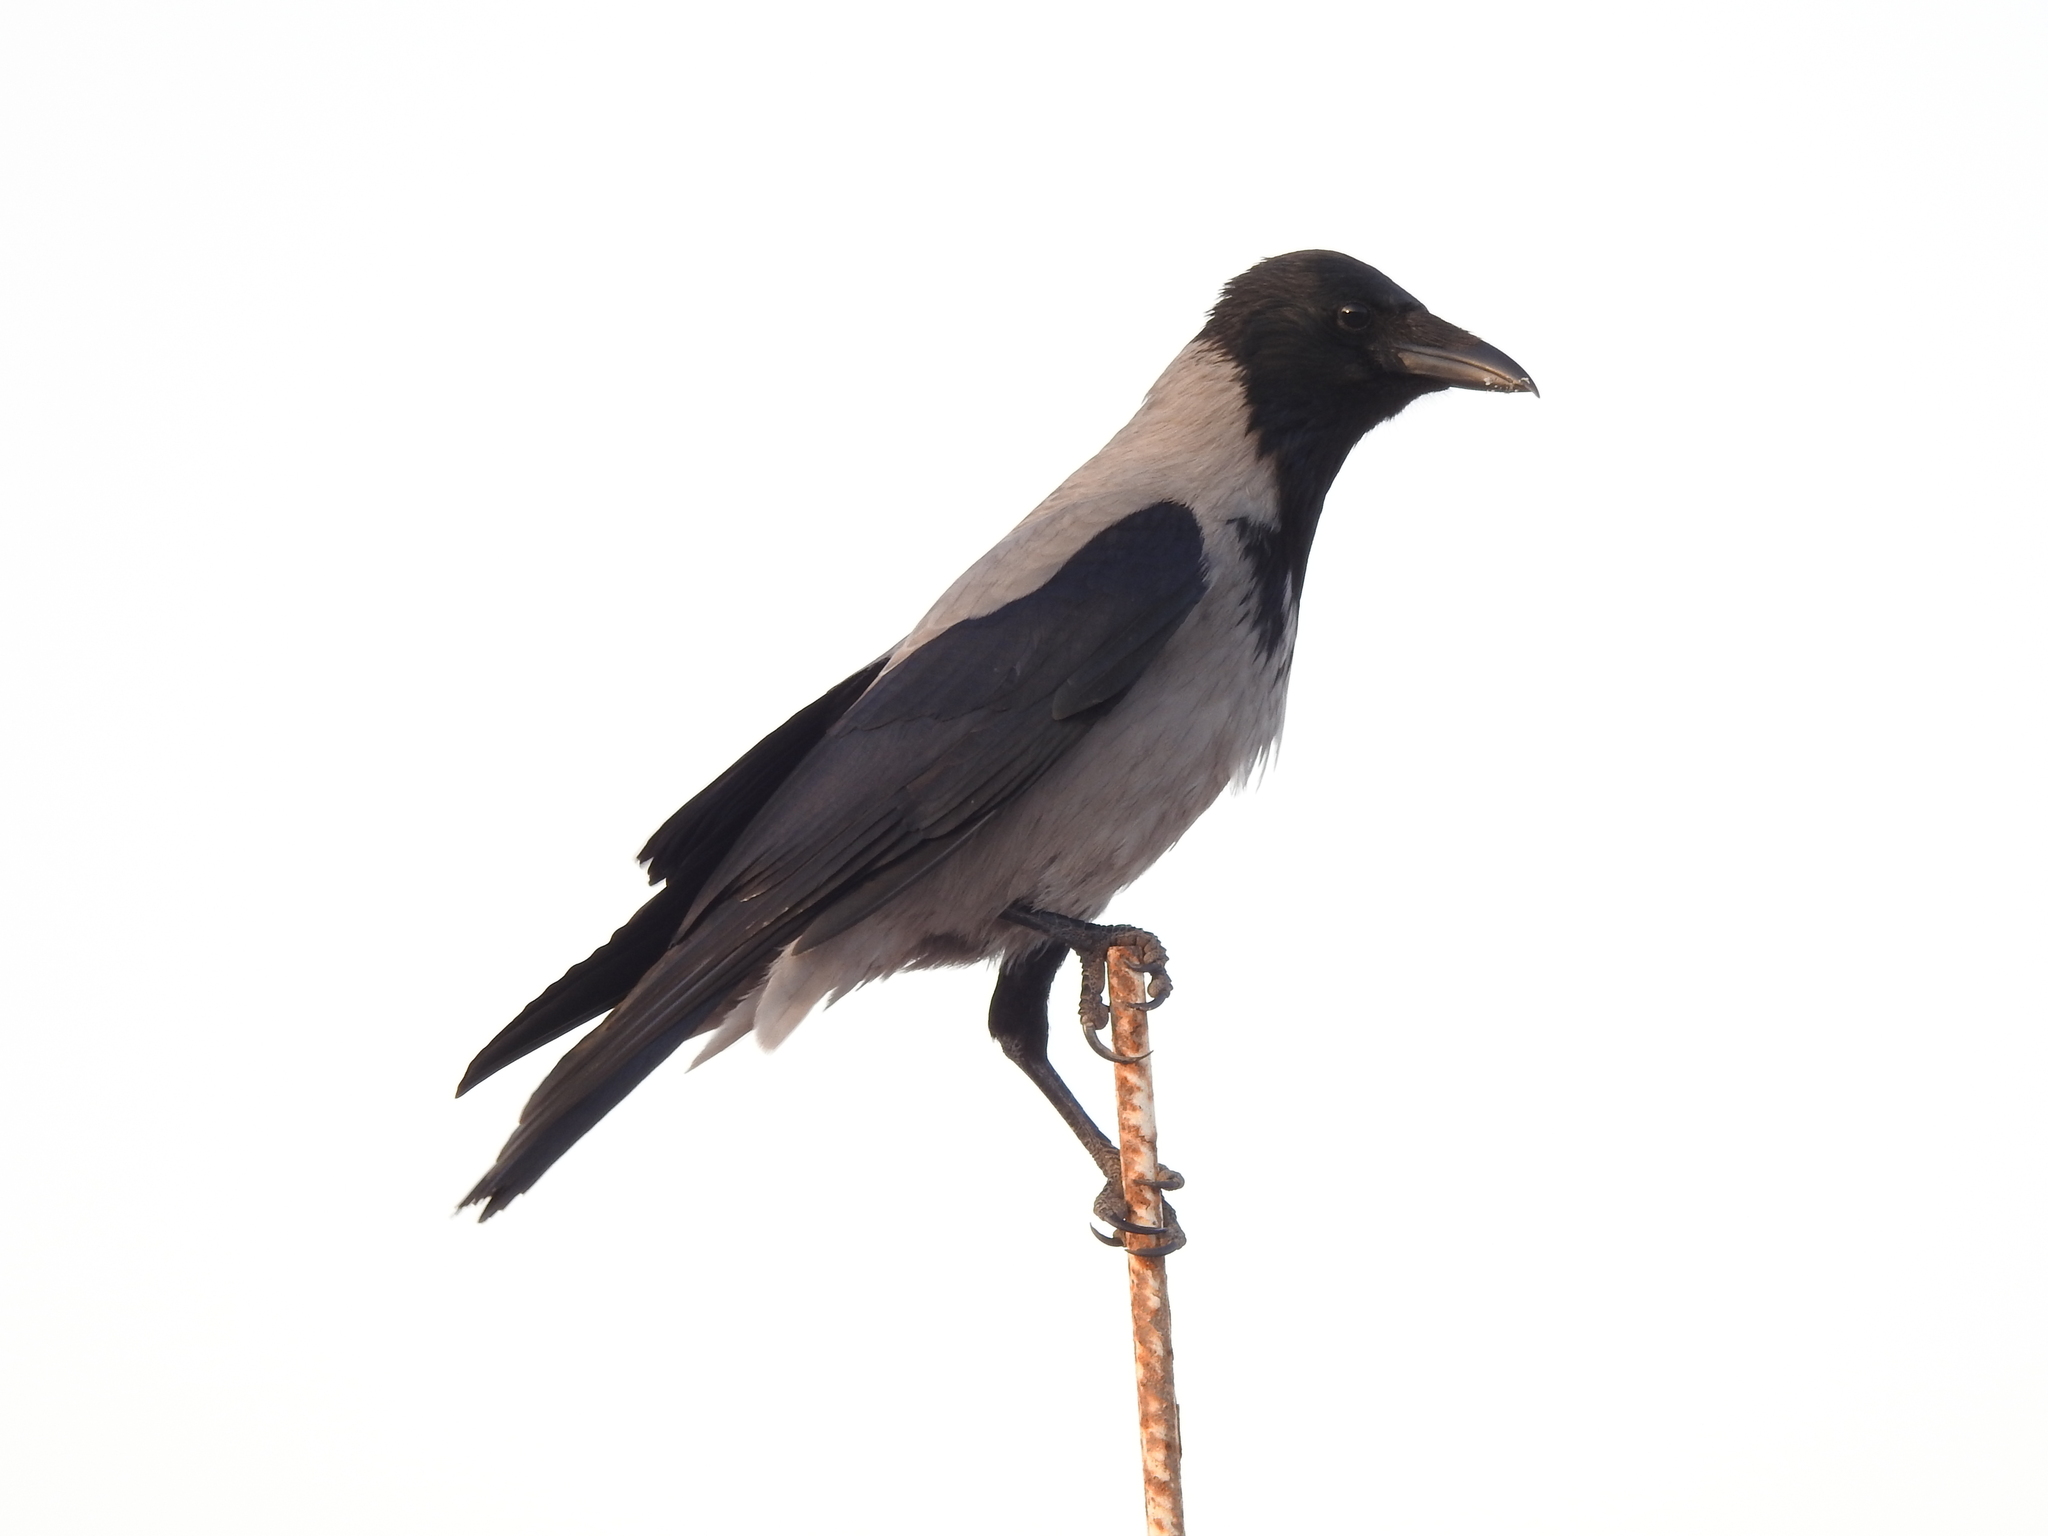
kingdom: Animalia
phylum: Chordata
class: Aves
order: Passeriformes
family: Corvidae
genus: Corvus
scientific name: Corvus cornix
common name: Hooded crow
